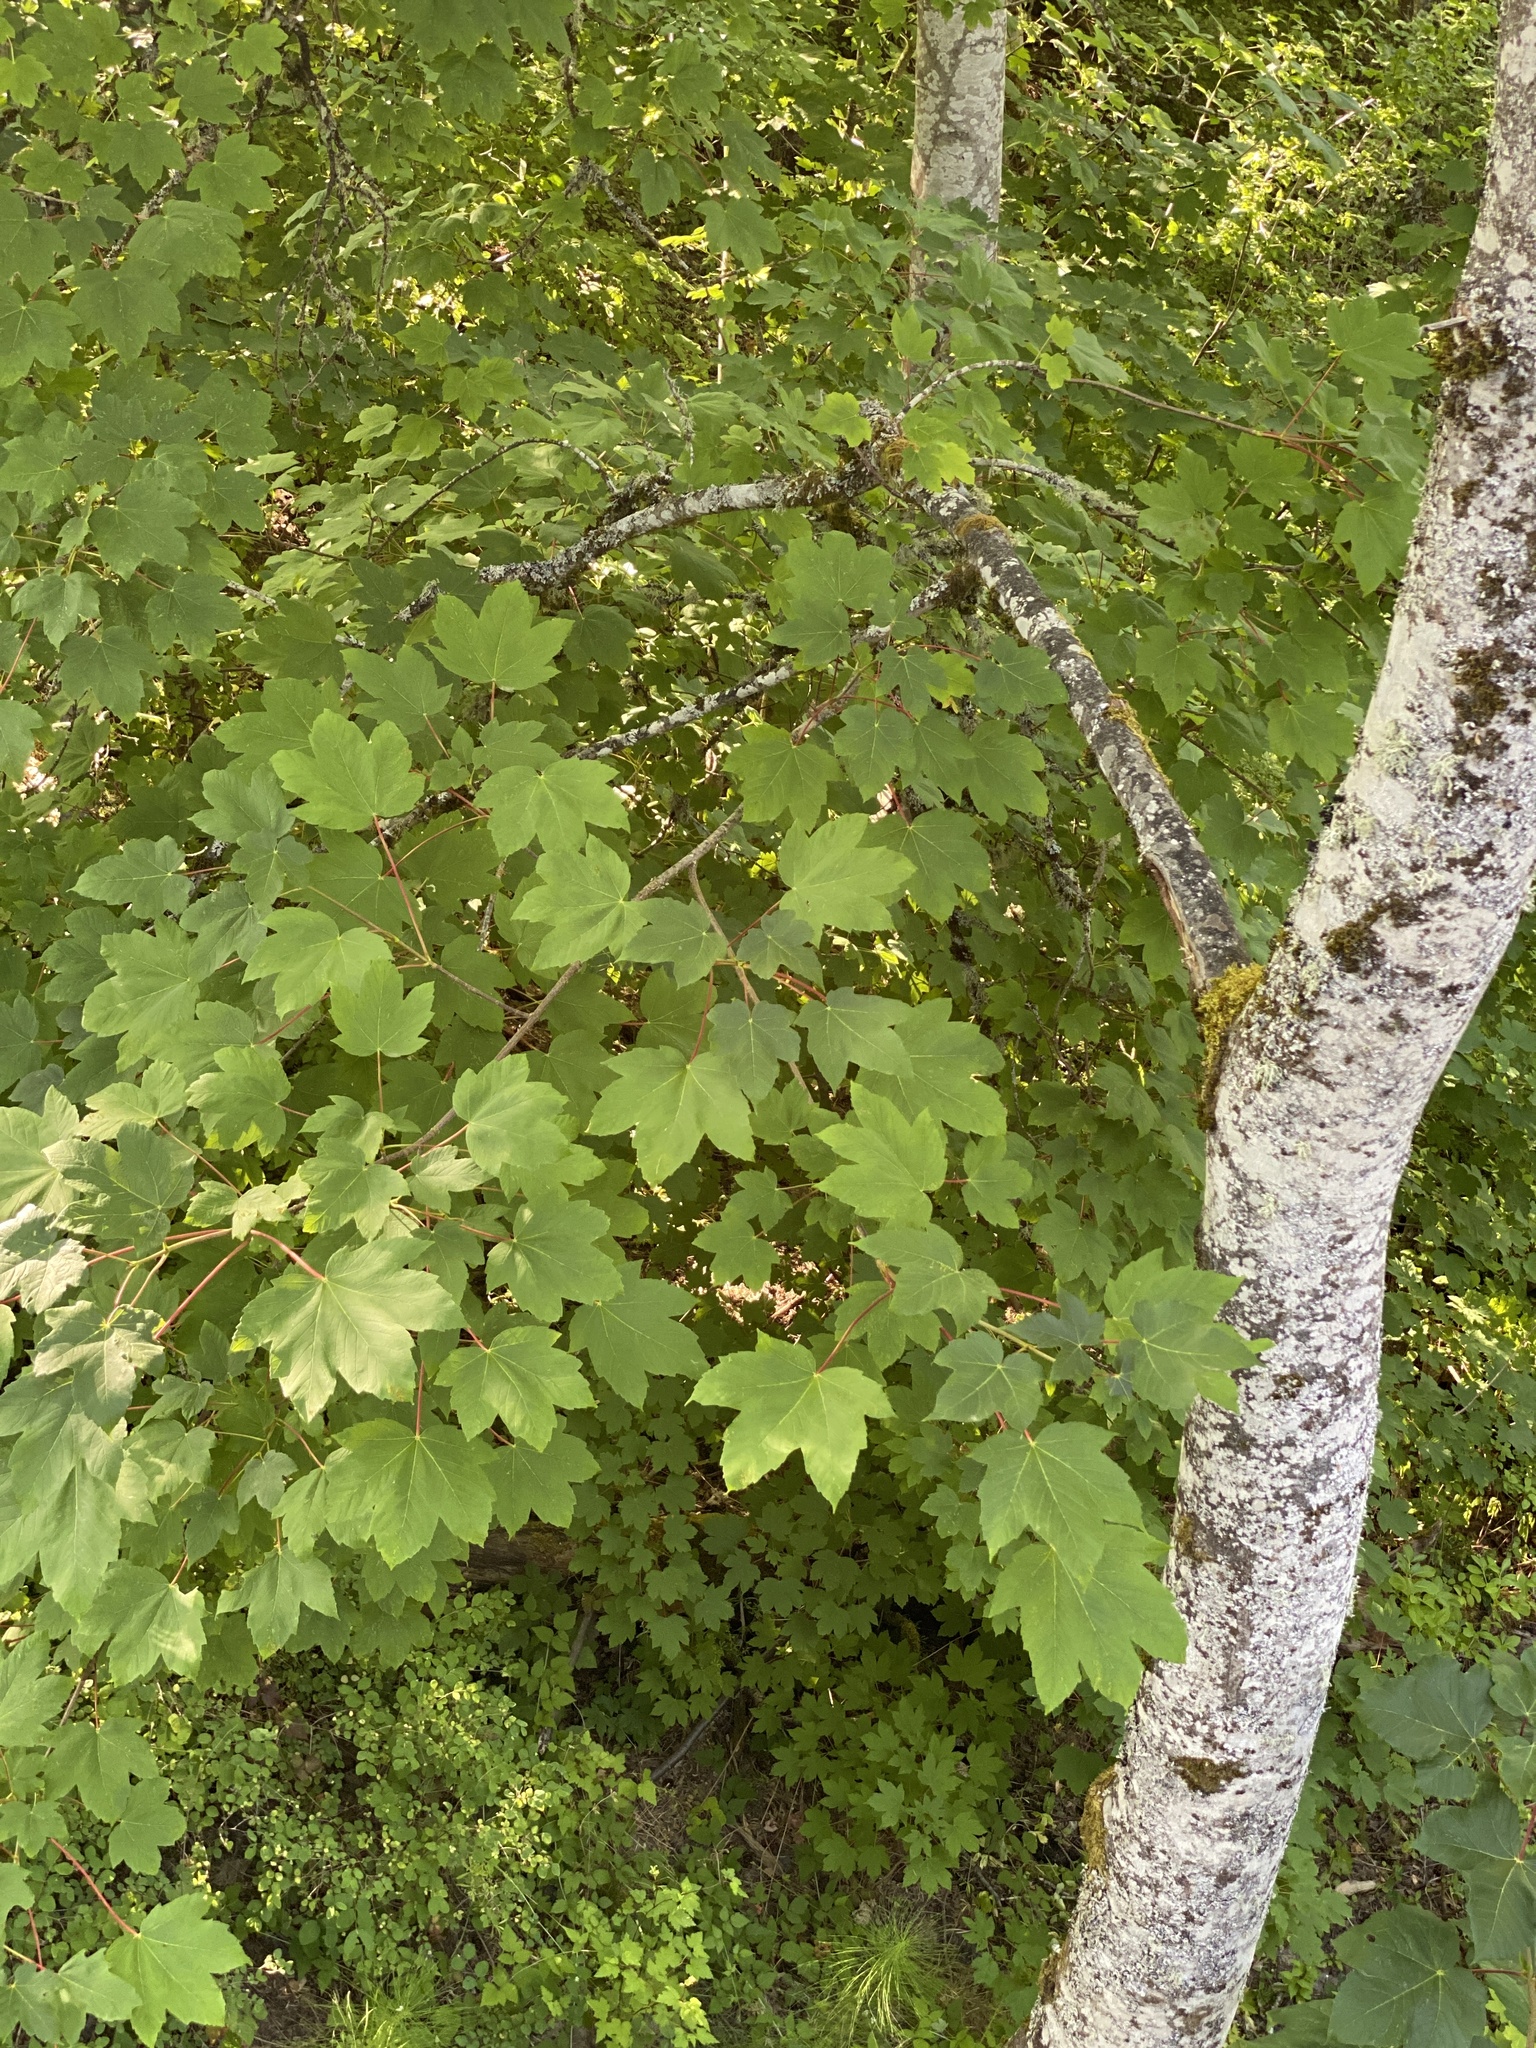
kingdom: Plantae
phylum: Tracheophyta
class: Magnoliopsida
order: Sapindales
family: Sapindaceae
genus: Acer
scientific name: Acer pseudoplatanus
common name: Sycamore
